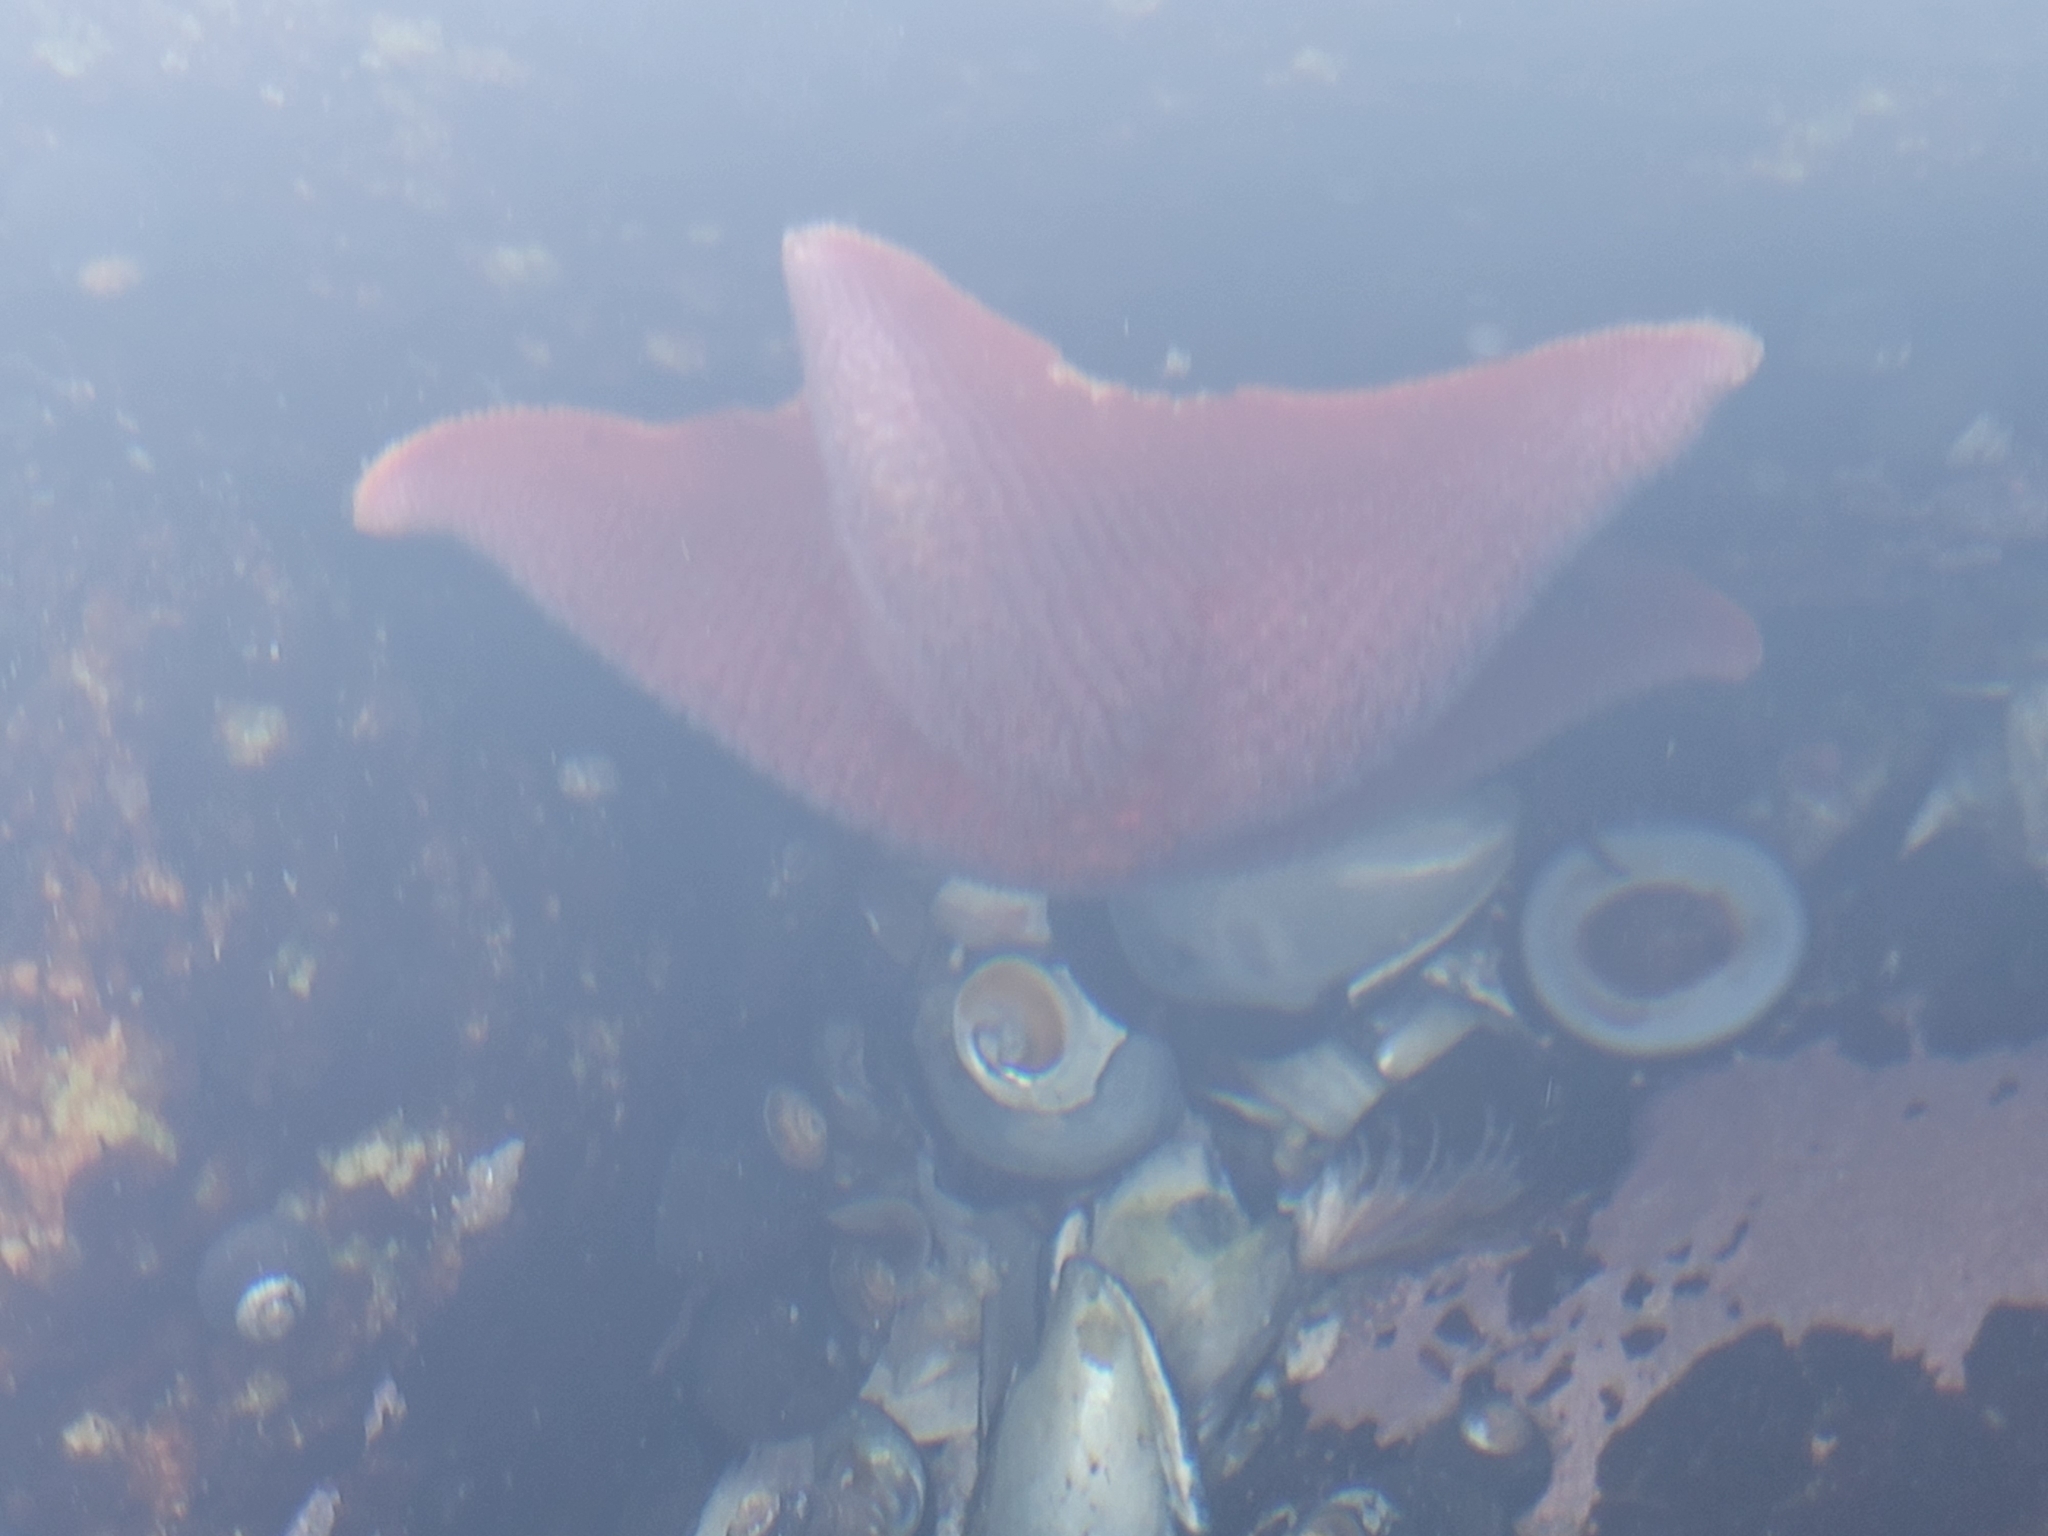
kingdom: Animalia
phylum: Echinodermata
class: Asteroidea
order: Valvatida
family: Asterinidae
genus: Patiria
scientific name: Patiria miniata
